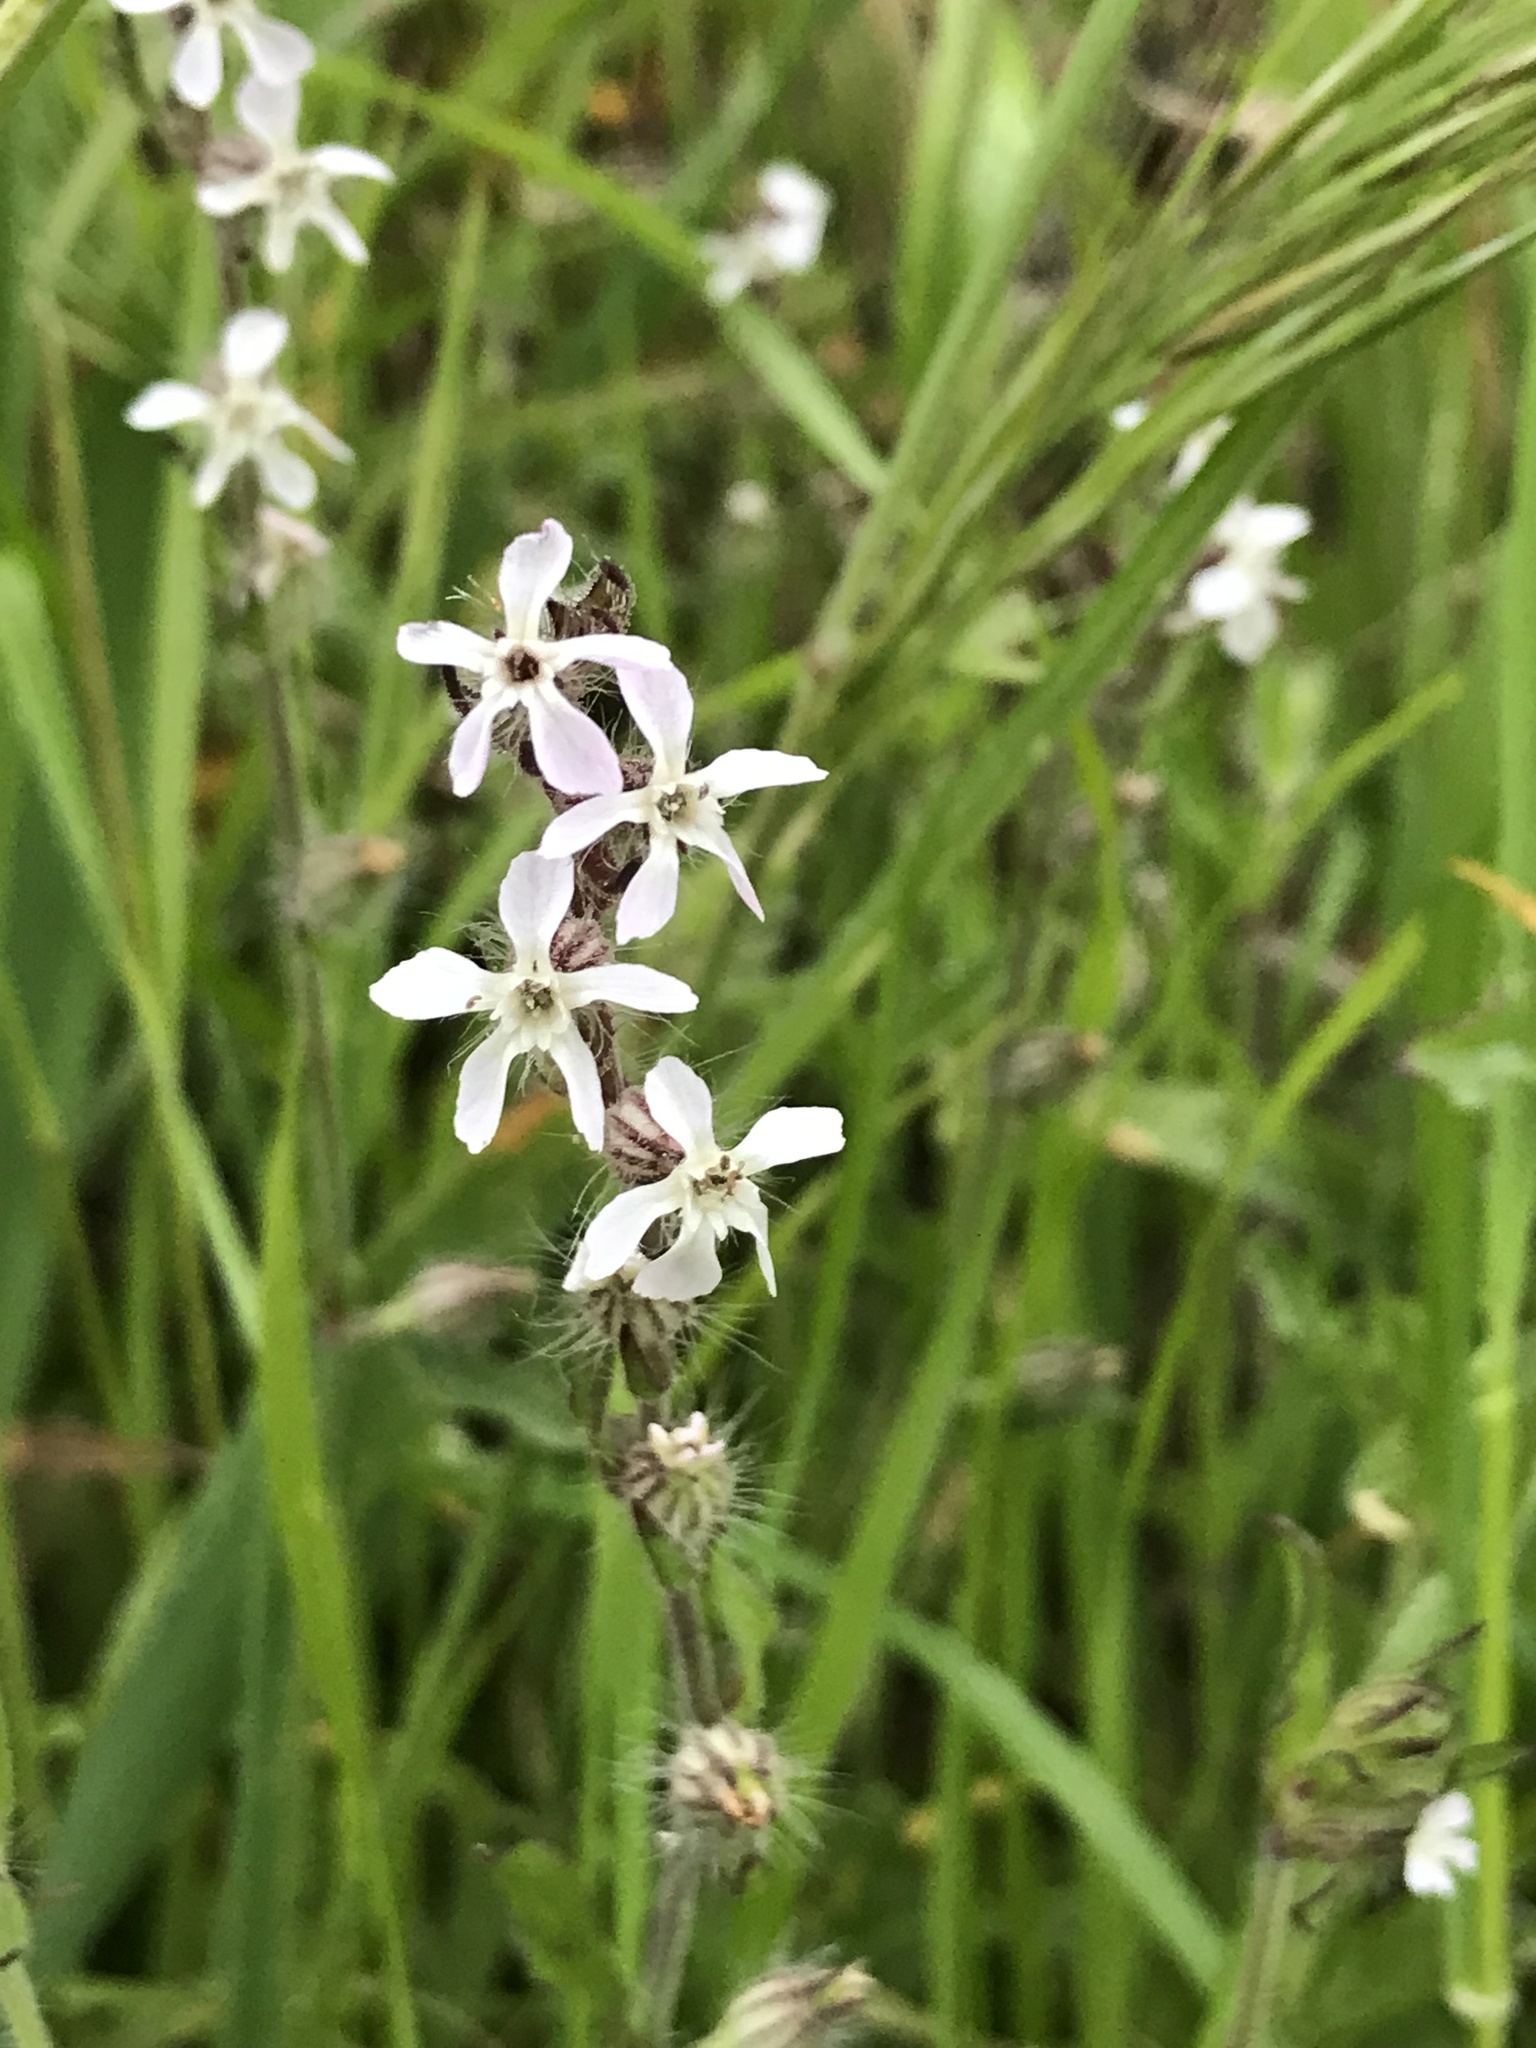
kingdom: Plantae
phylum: Tracheophyta
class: Magnoliopsida
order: Caryophyllales
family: Caryophyllaceae
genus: Silene
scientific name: Silene gallica
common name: Small-flowered catchfly
